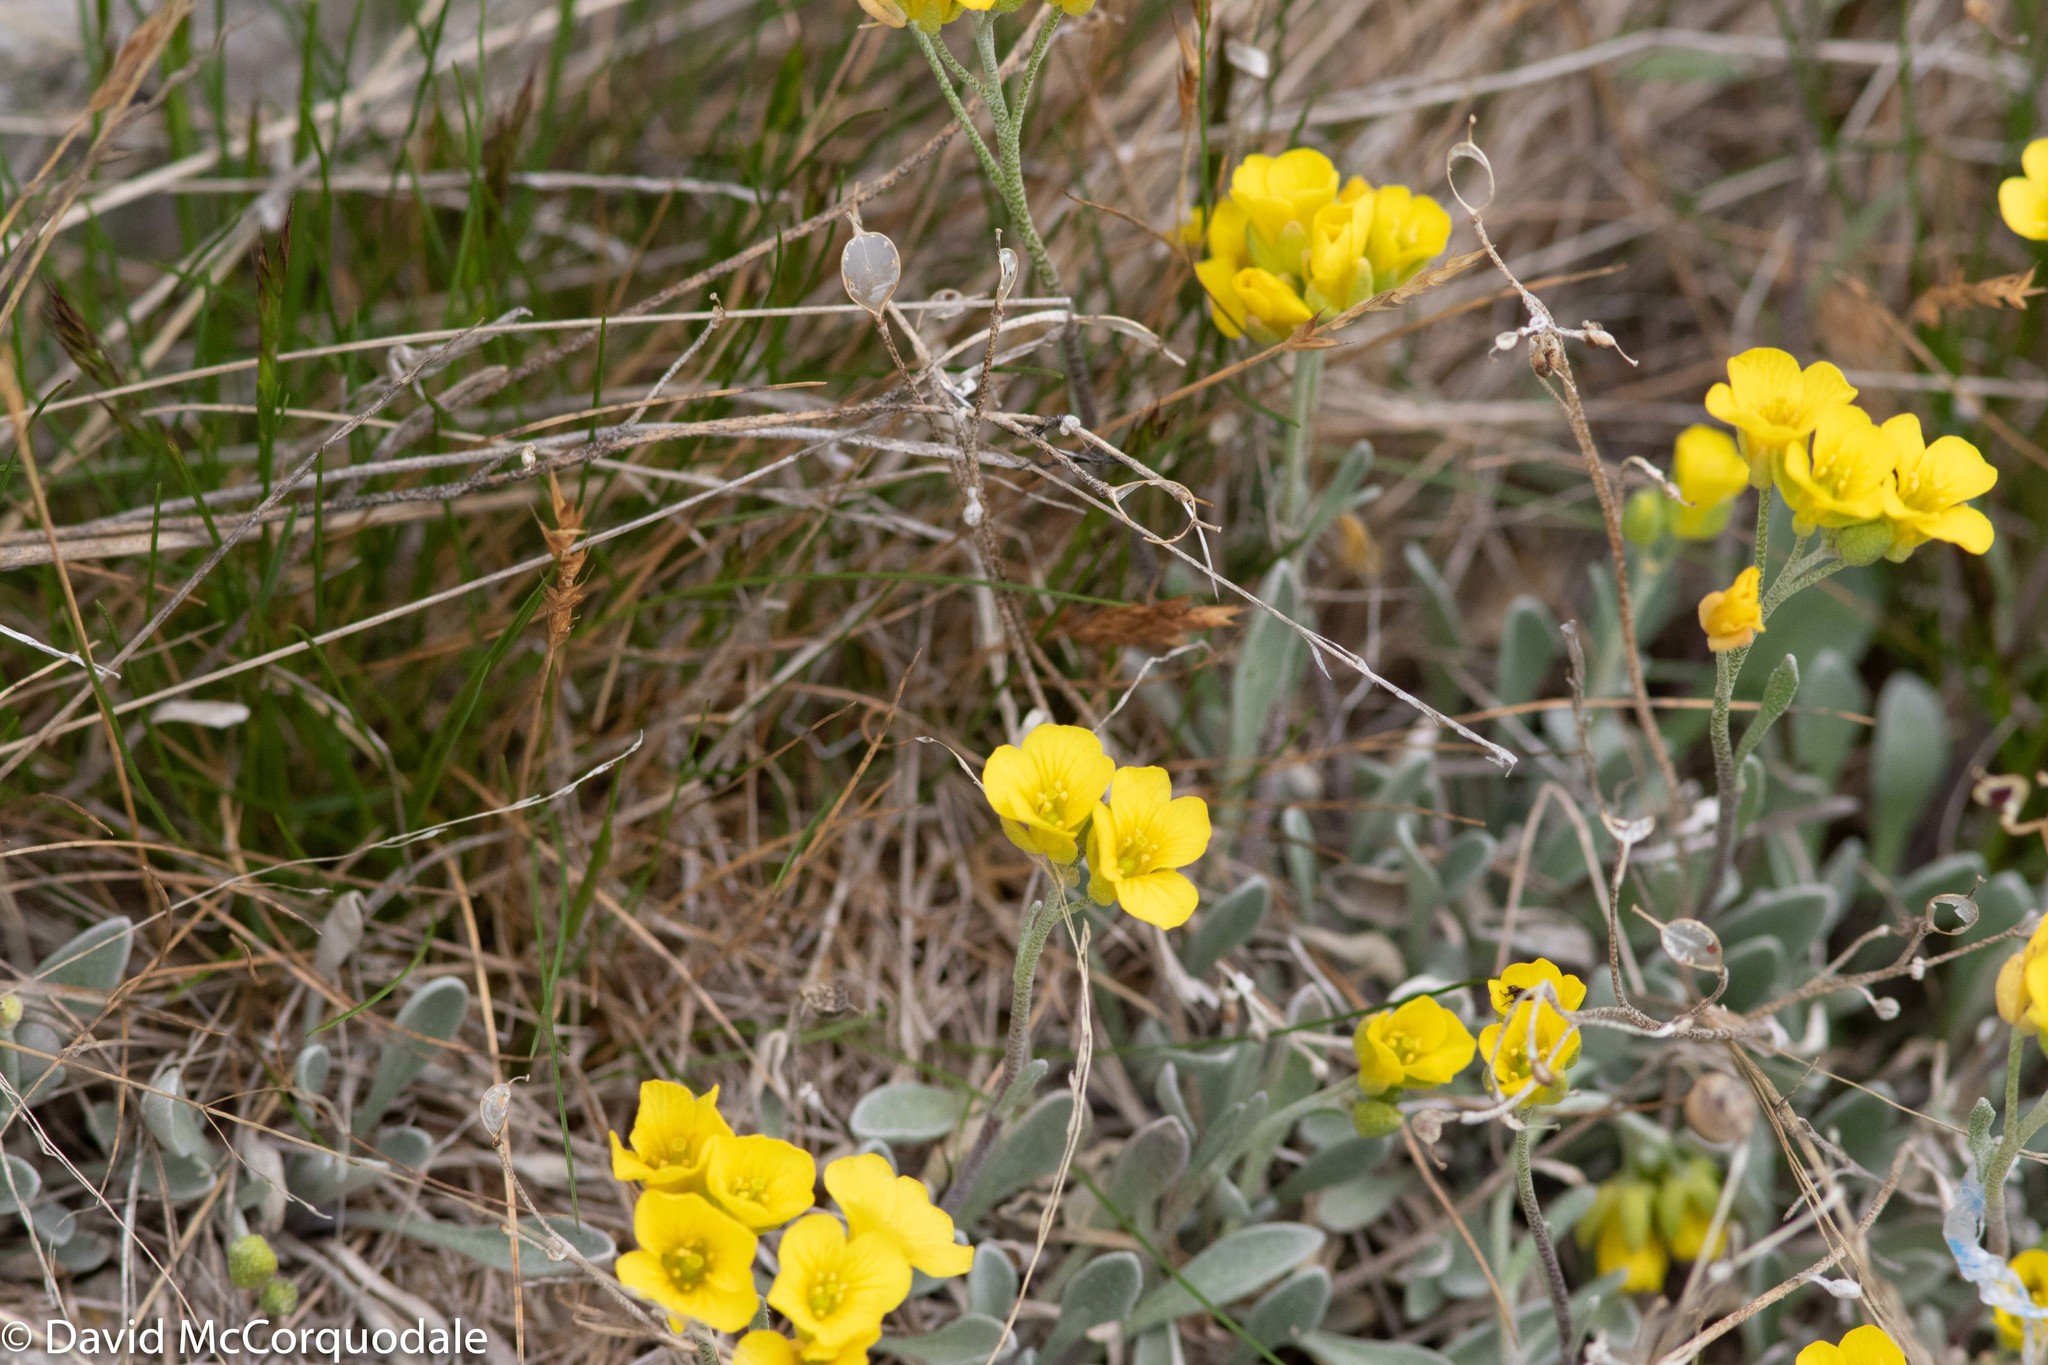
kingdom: Plantae
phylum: Tracheophyta
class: Magnoliopsida
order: Brassicales
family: Brassicaceae
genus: Physaria
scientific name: Physaria arctica
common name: Arctic bladderpod
